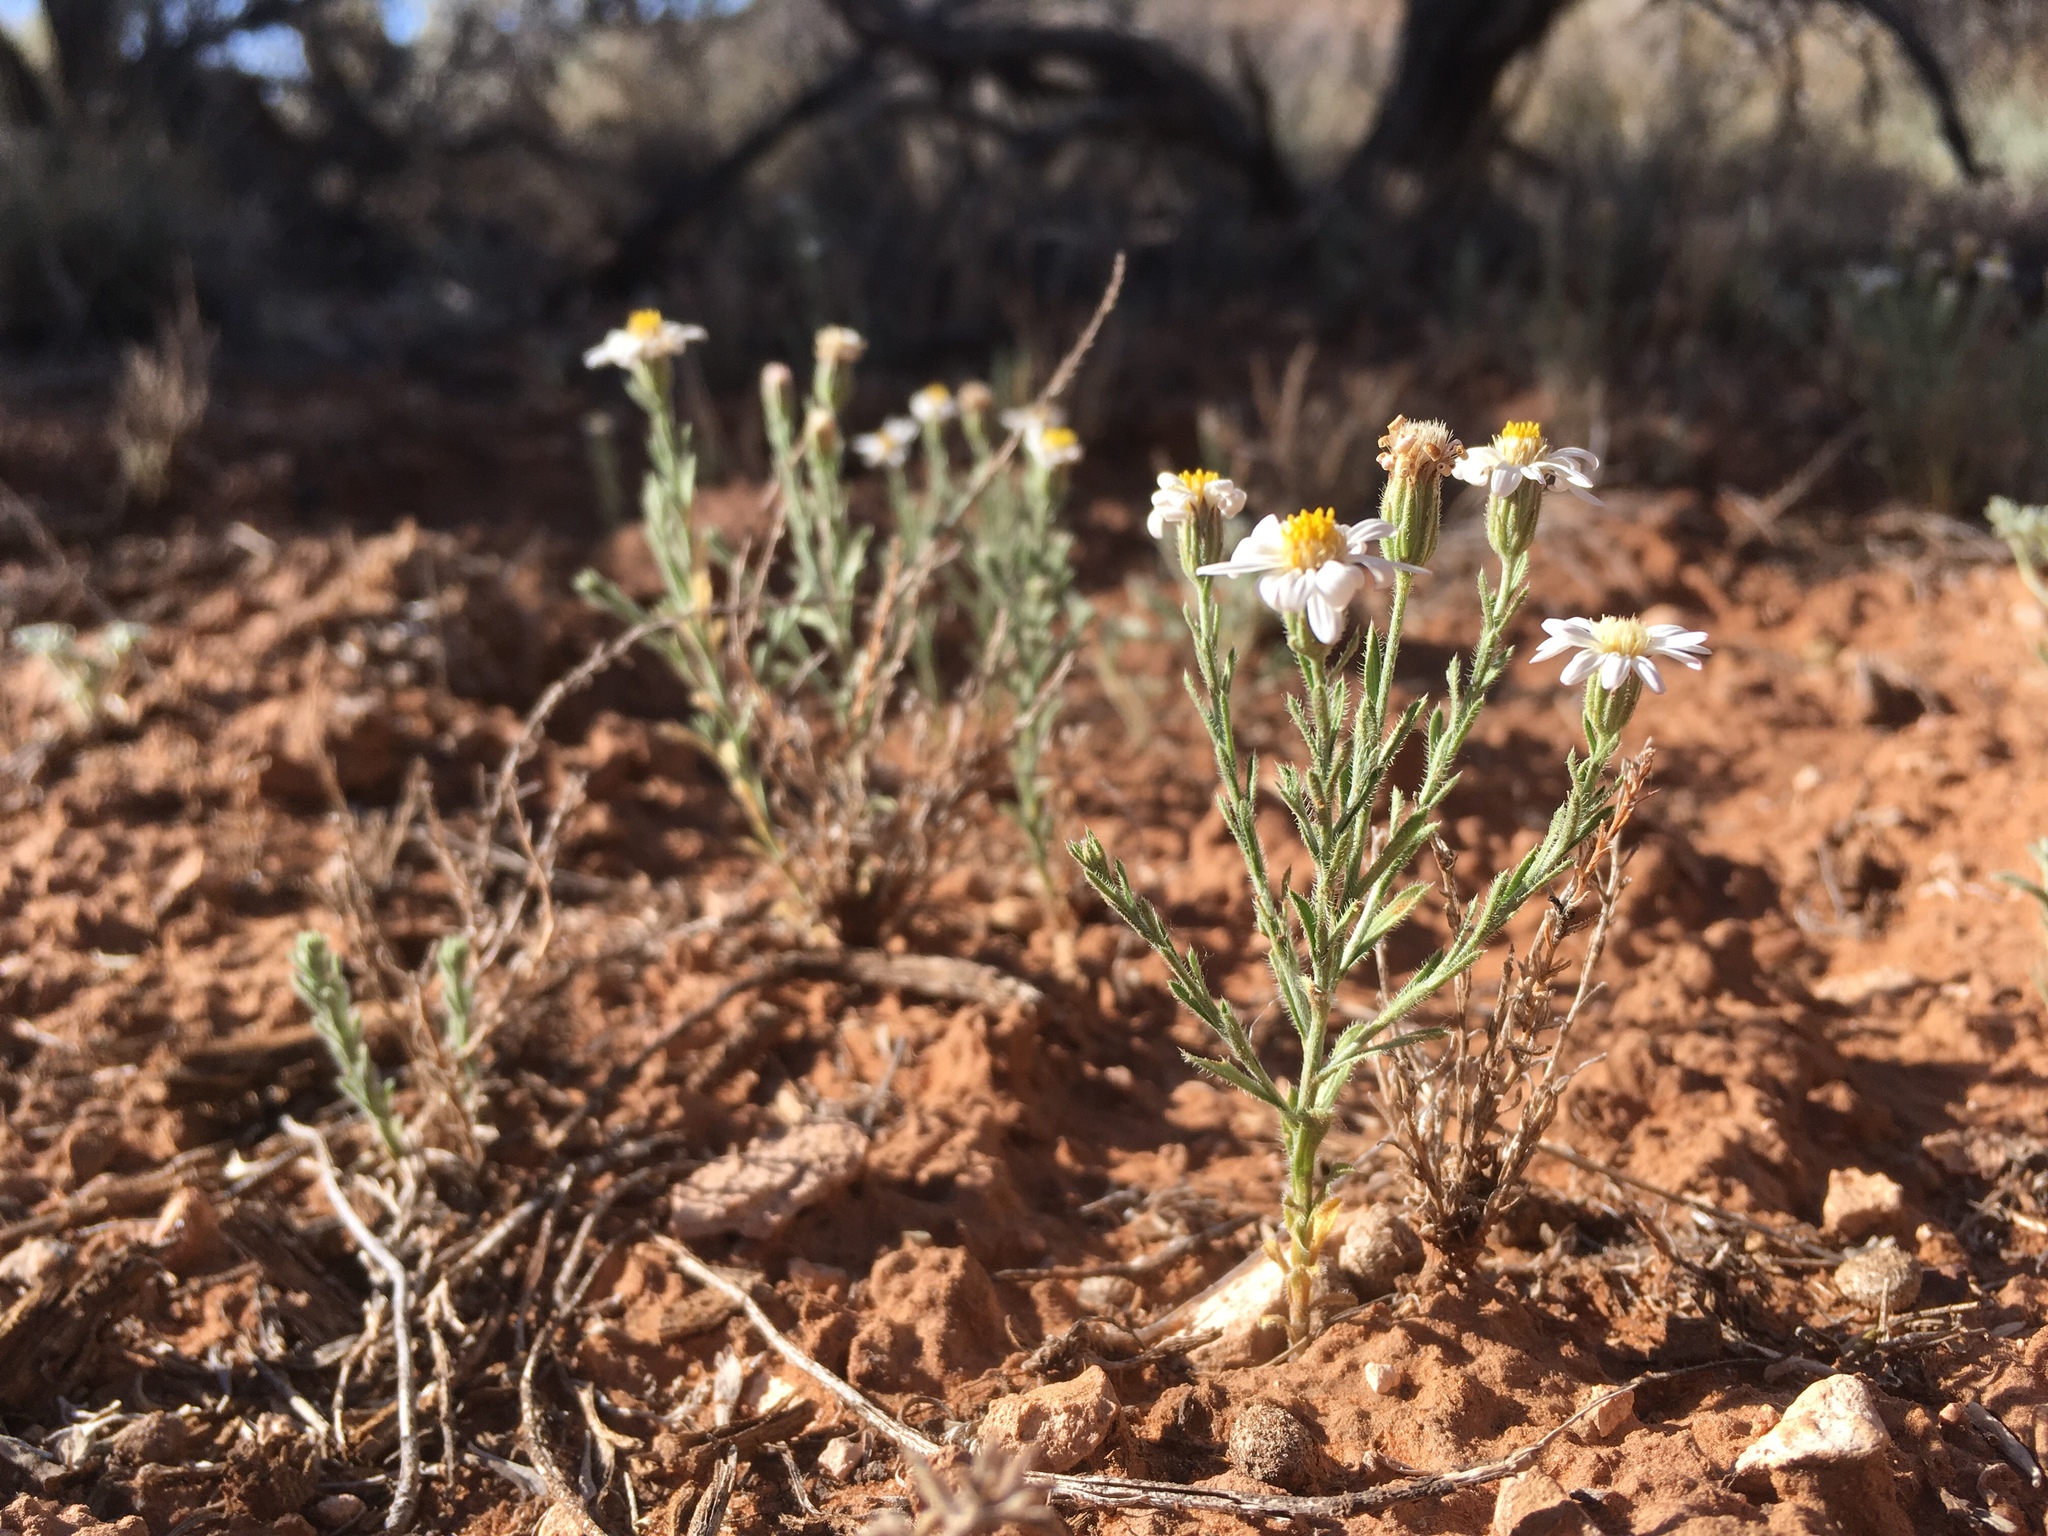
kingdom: Plantae
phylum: Tracheophyta
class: Magnoliopsida
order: Asterales
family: Asteraceae
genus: Chaetopappa
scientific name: Chaetopappa ericoides
